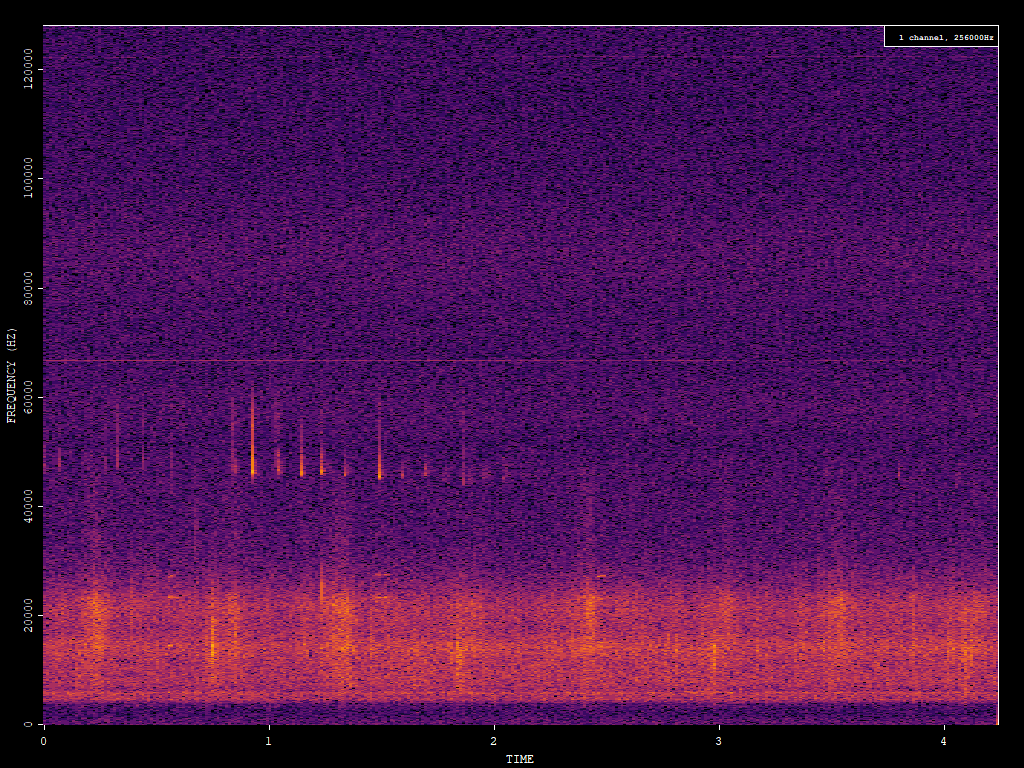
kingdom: Animalia
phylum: Chordata
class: Mammalia
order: Chiroptera
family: Vespertilionidae
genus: Pipistrellus
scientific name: Pipistrellus pipistrellus
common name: Common pipistrelle
